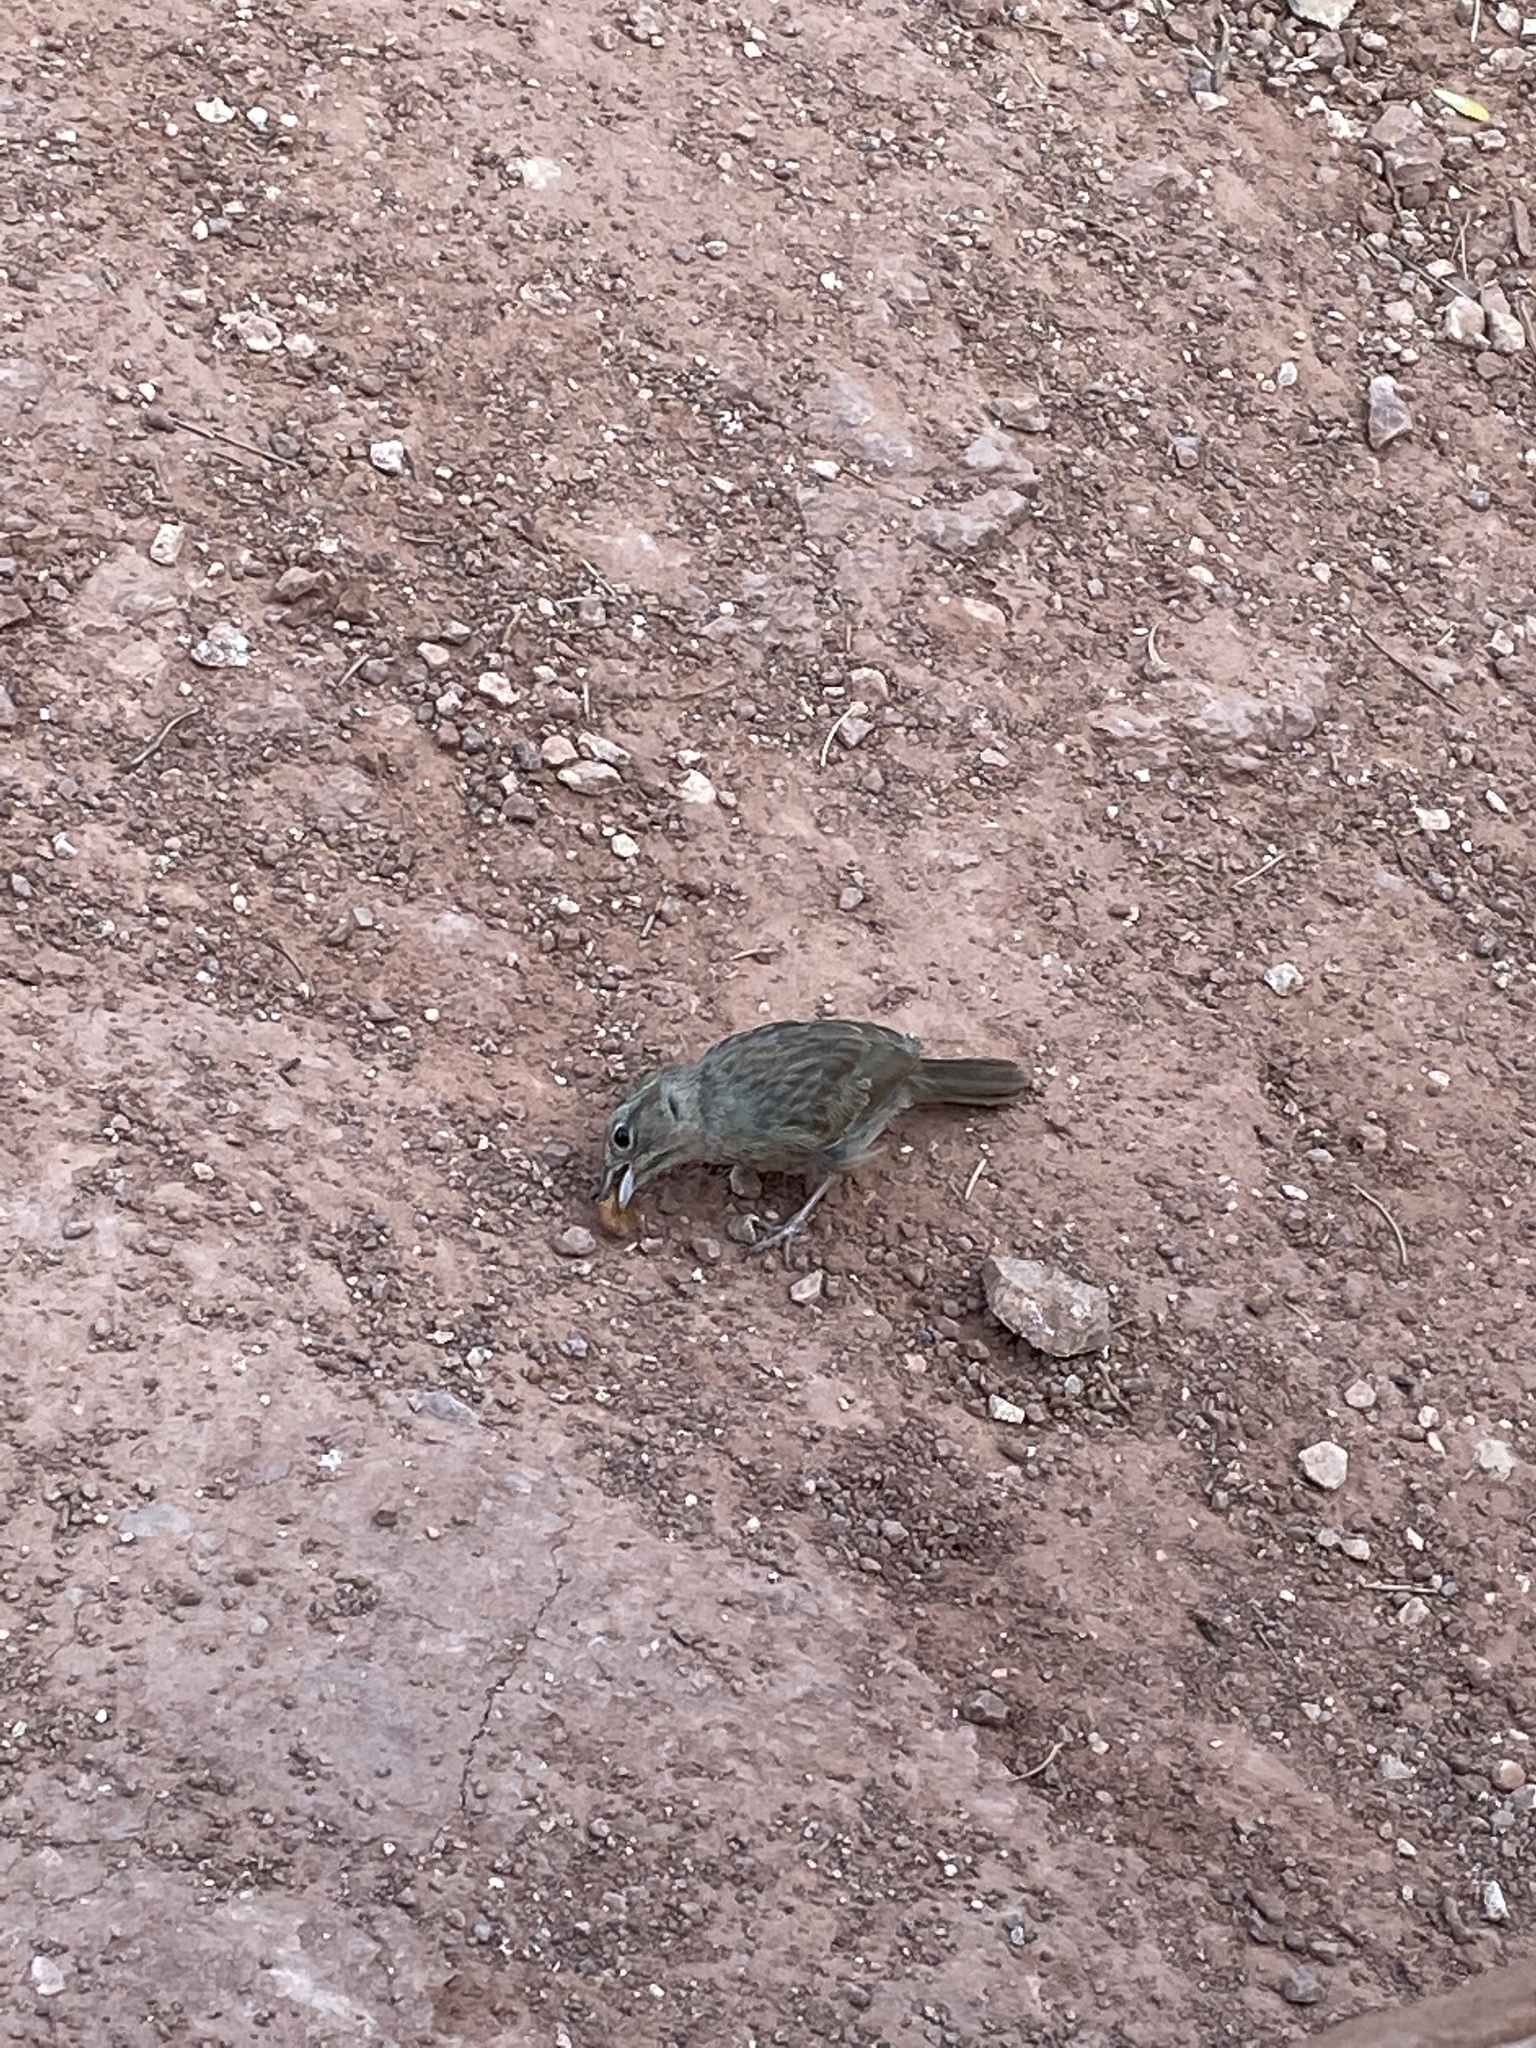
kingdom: Animalia
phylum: Chordata
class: Aves
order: Passeriformes
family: Passerellidae
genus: Aimophila
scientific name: Aimophila ruficeps
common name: Rufous-crowned sparrow
